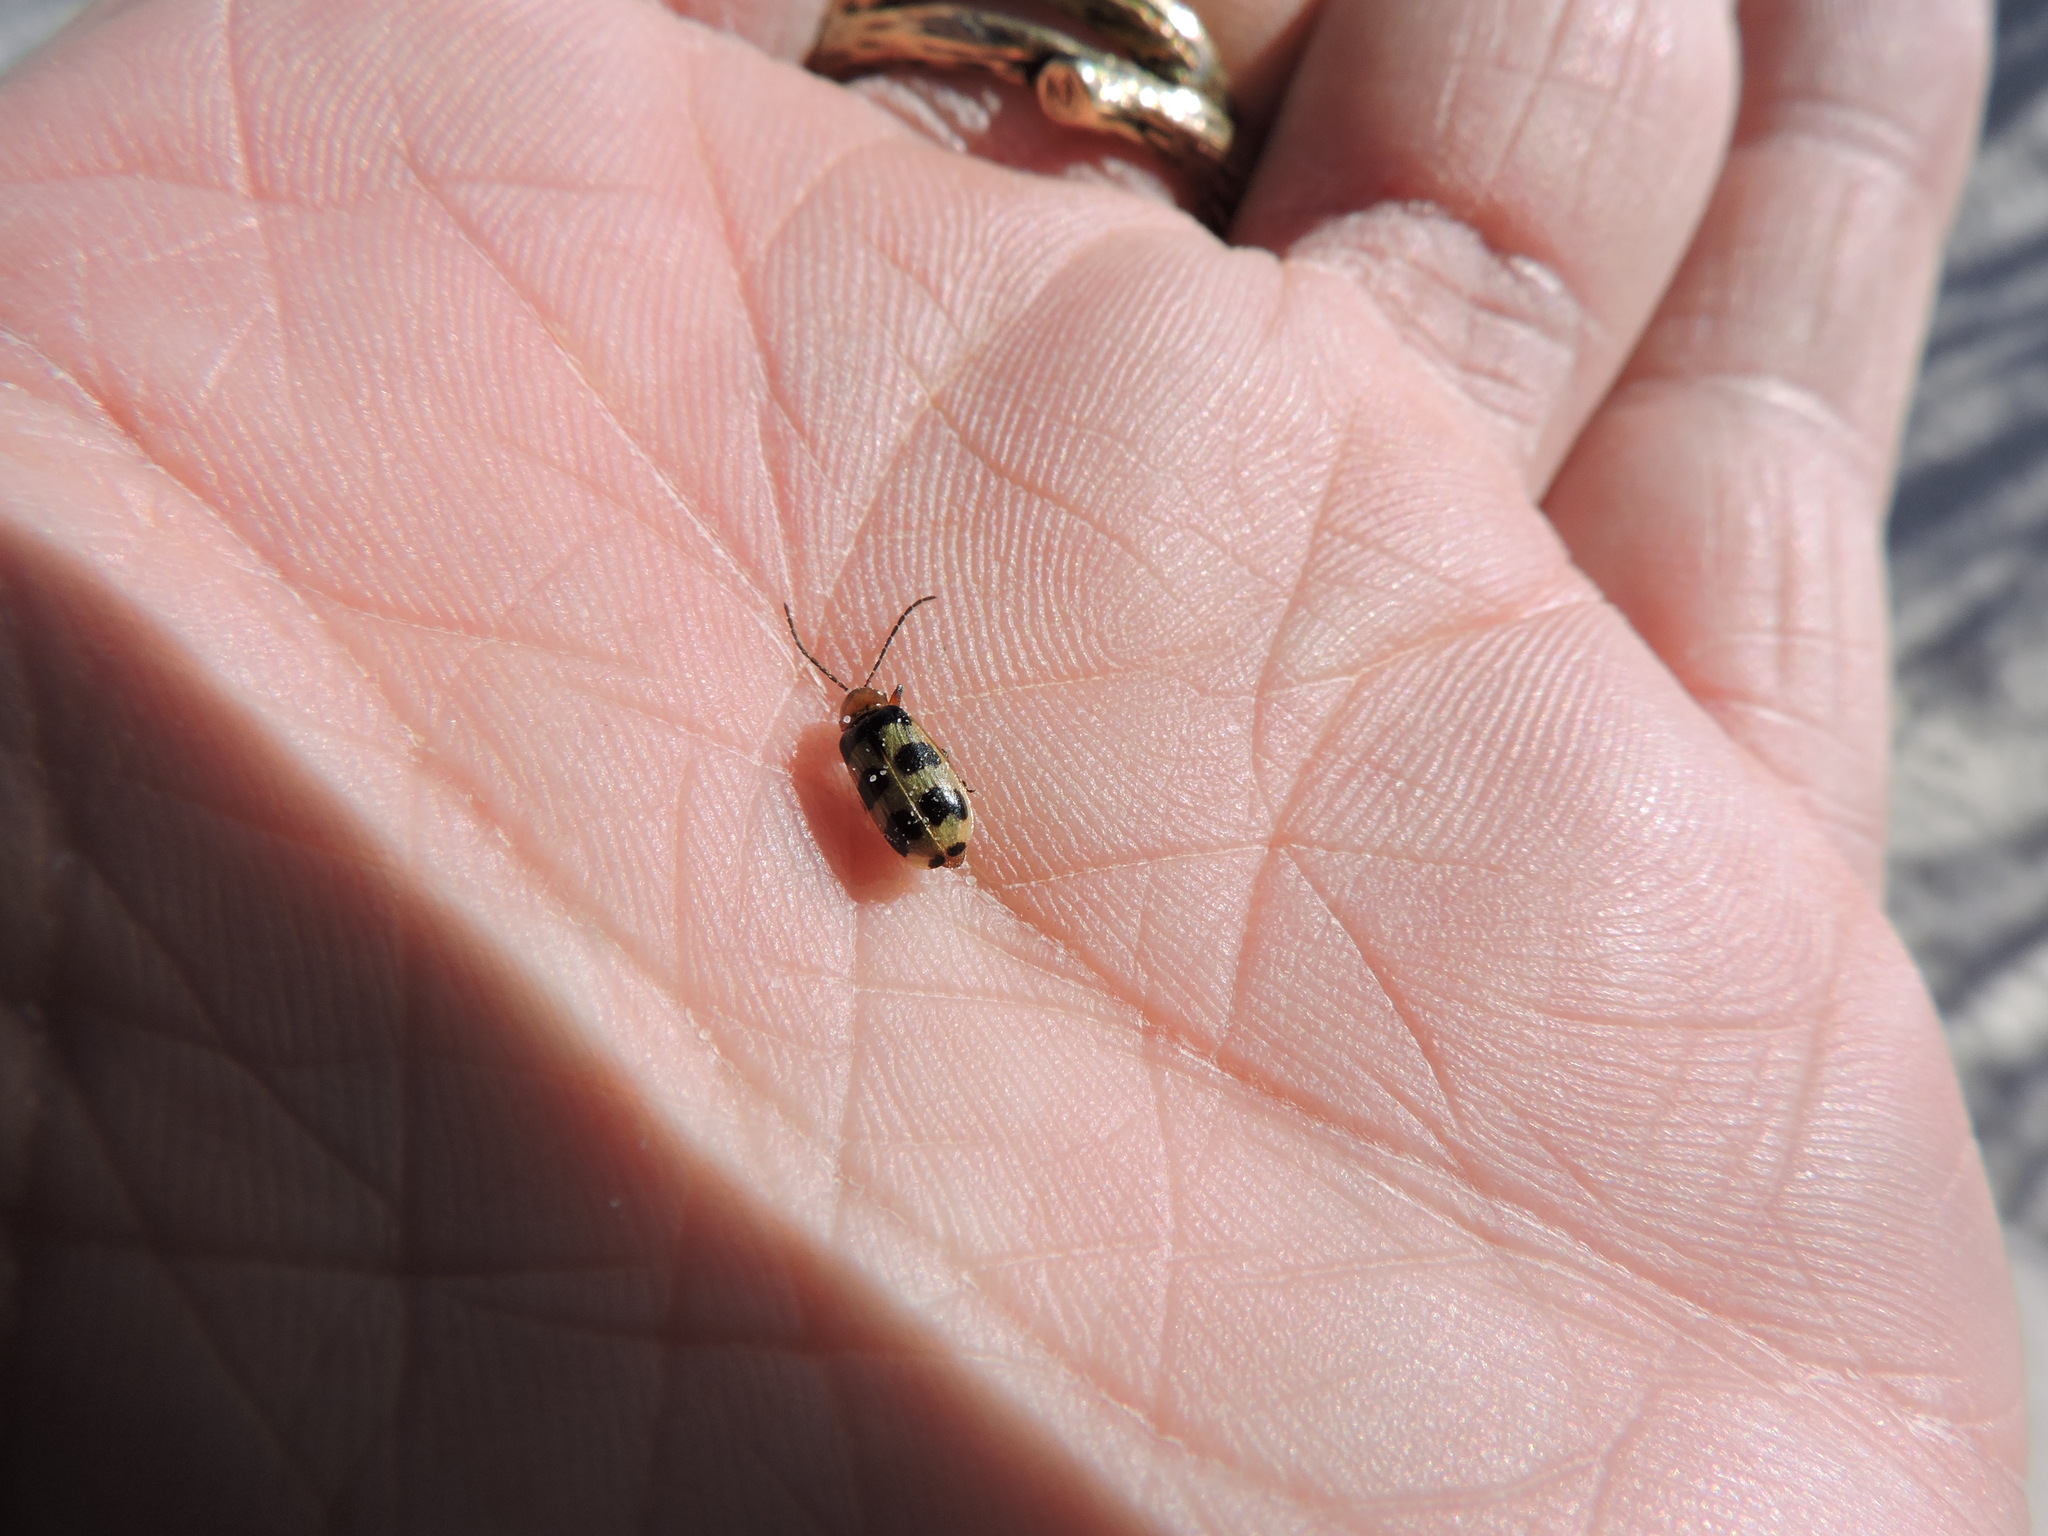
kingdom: Animalia
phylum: Arthropoda
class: Insecta
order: Coleoptera
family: Chrysomelidae
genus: Paranapiacaba
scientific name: Paranapiacaba tricincta
